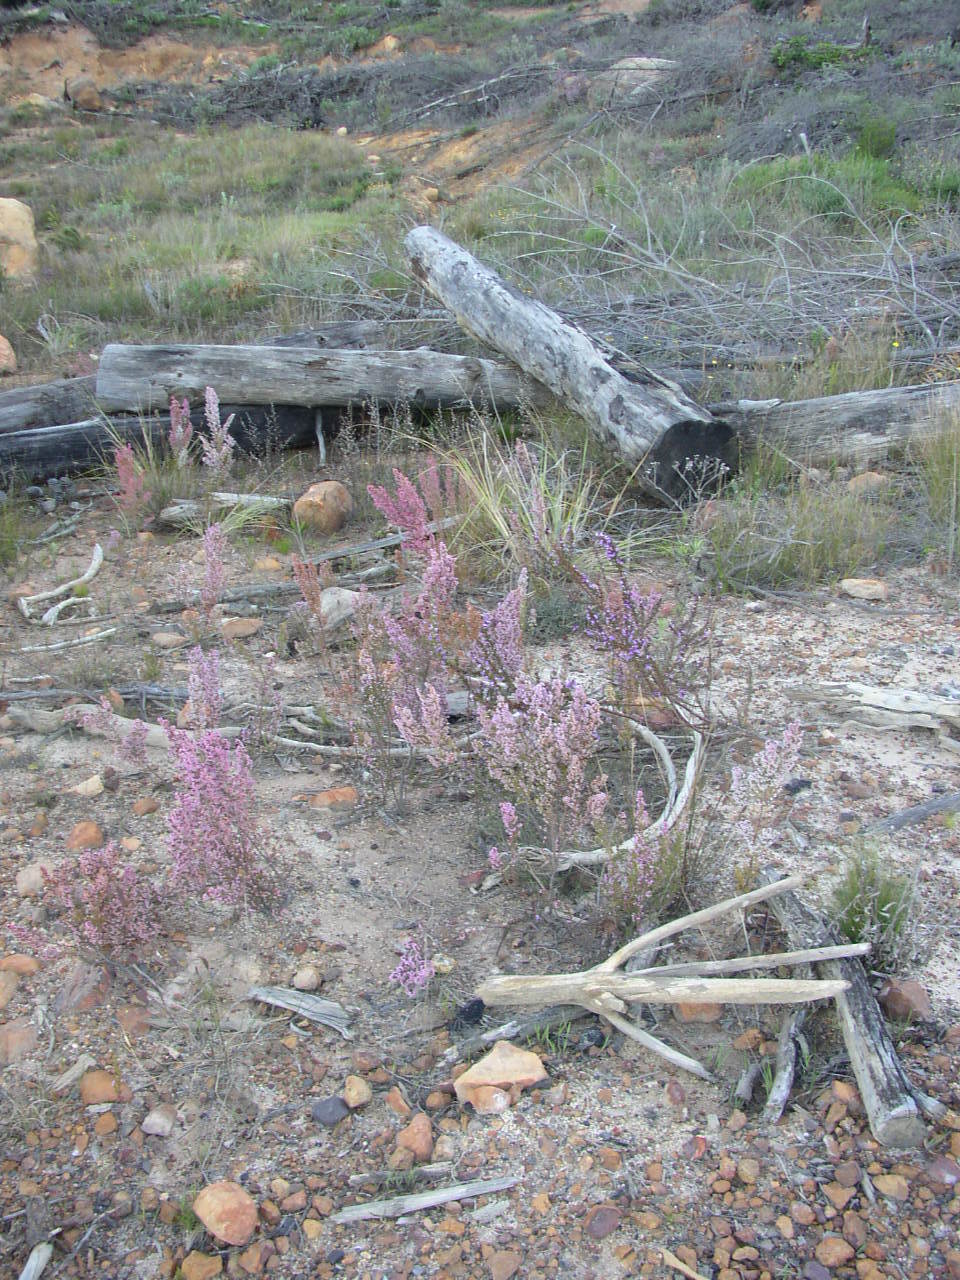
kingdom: Plantae
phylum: Tracheophyta
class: Magnoliopsida
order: Ericales
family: Ericaceae
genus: Erica
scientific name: Erica hirtiflora
